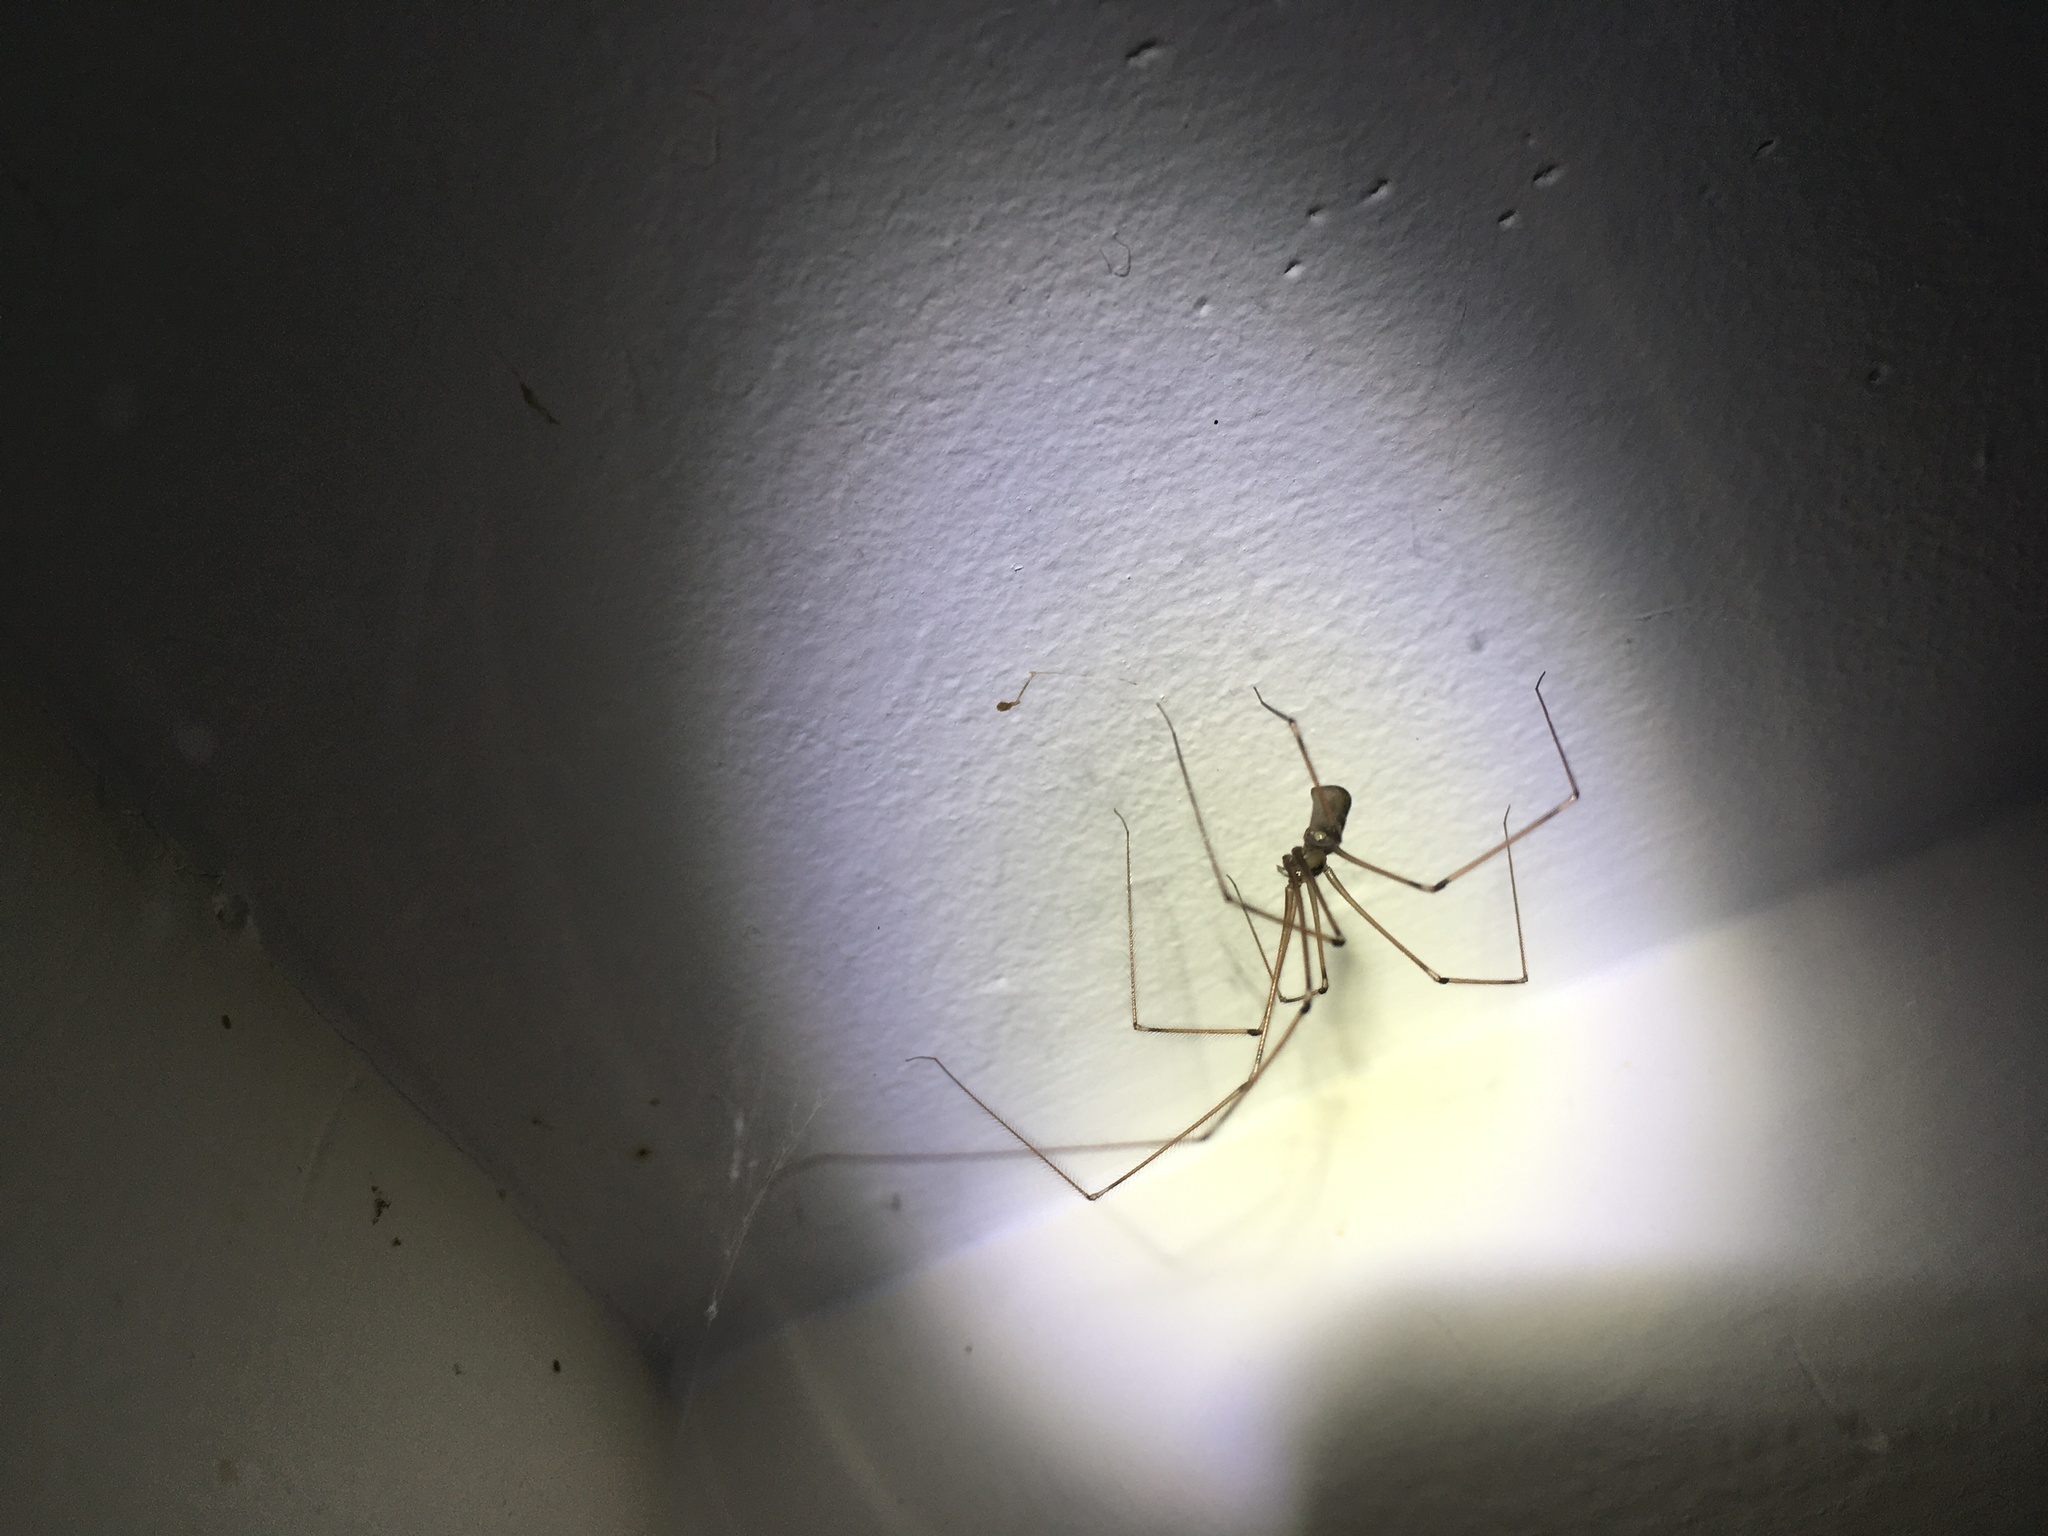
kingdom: Animalia
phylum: Arthropoda
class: Arachnida
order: Araneae
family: Pholcidae
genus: Pholcus
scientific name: Pholcus phalangioides
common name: Longbodied cellar spider
